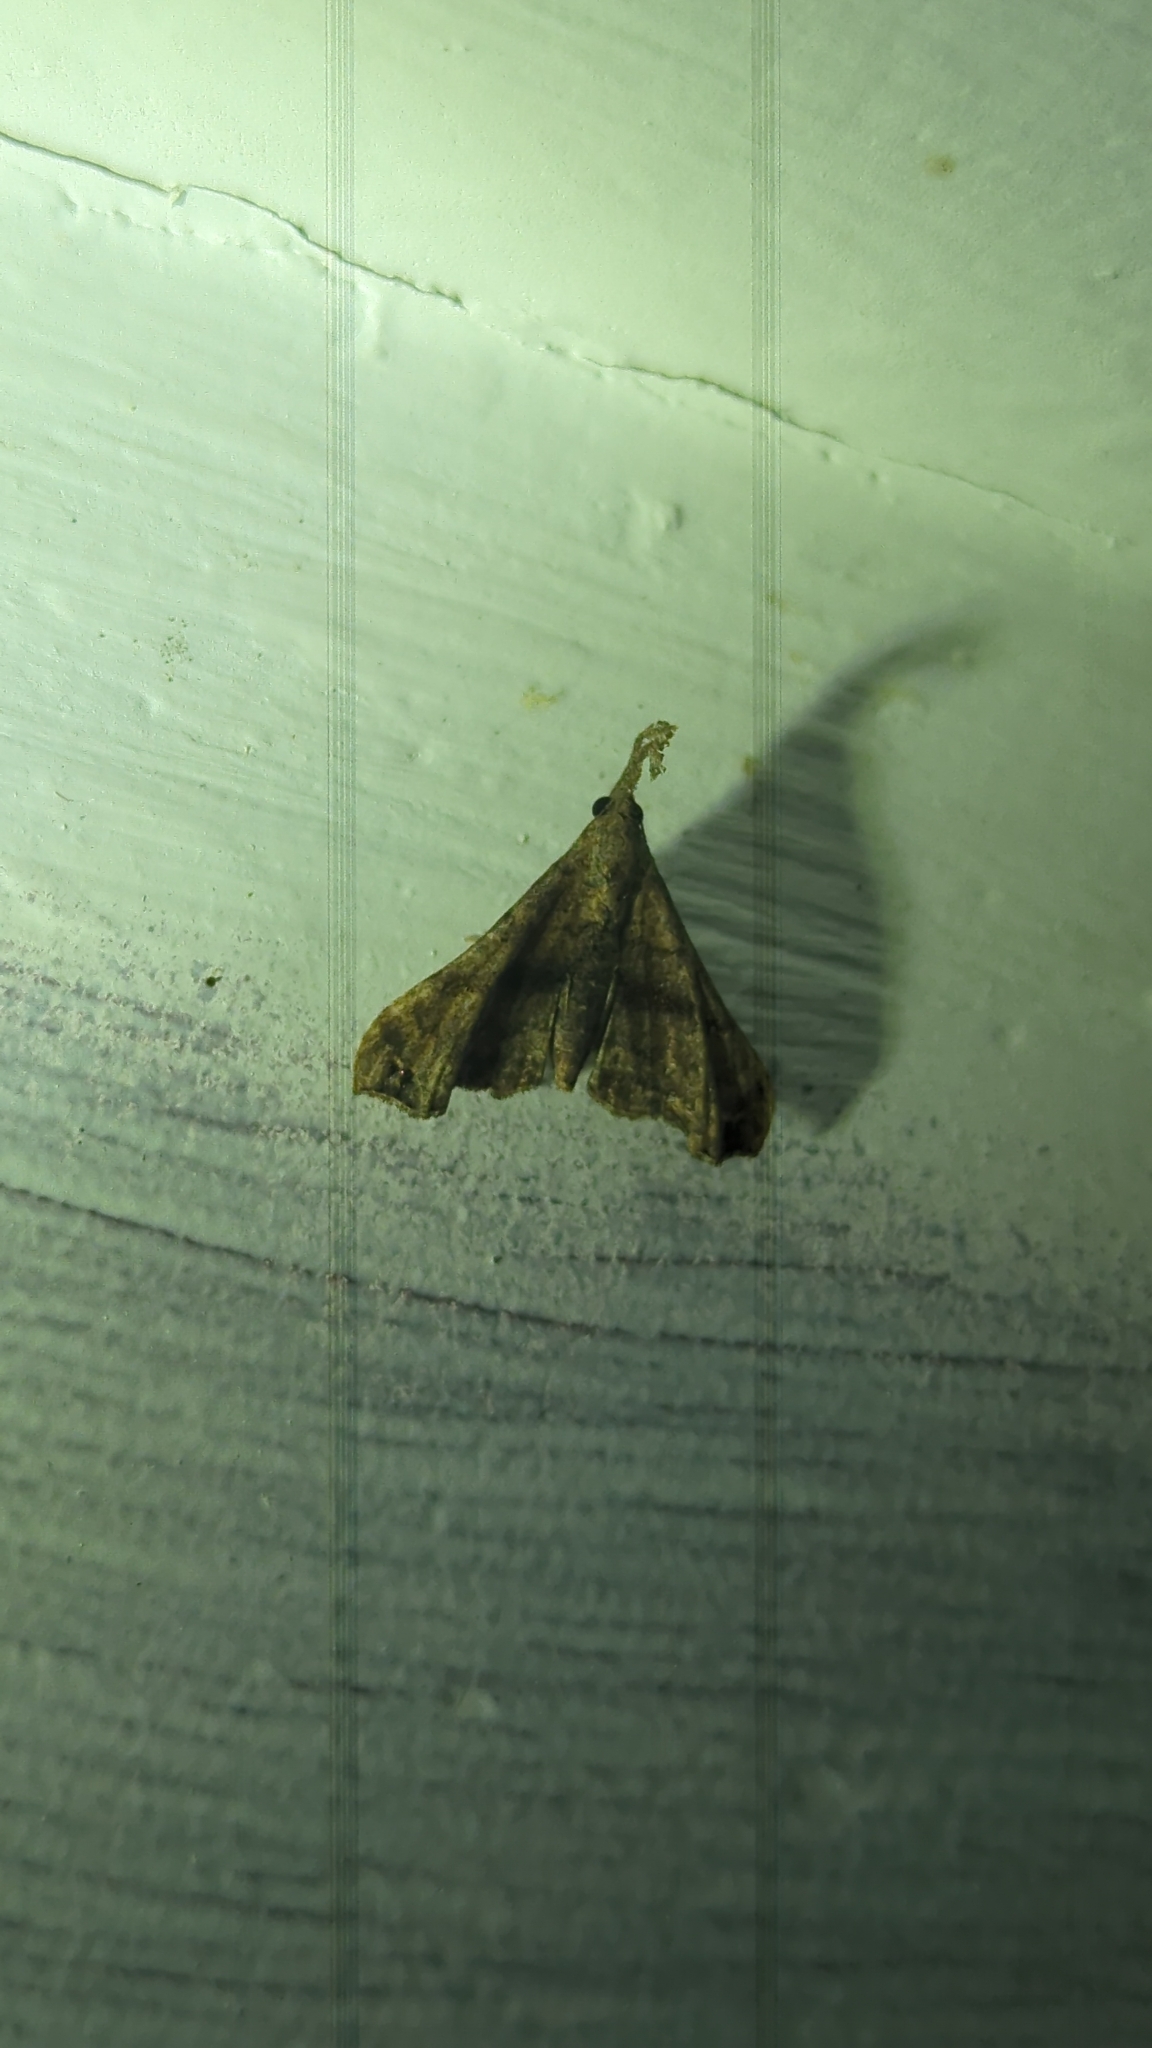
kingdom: Animalia
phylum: Arthropoda
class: Insecta
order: Lepidoptera
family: Erebidae
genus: Palthis
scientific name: Palthis asopialis
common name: Faint-spotted palthis moth
